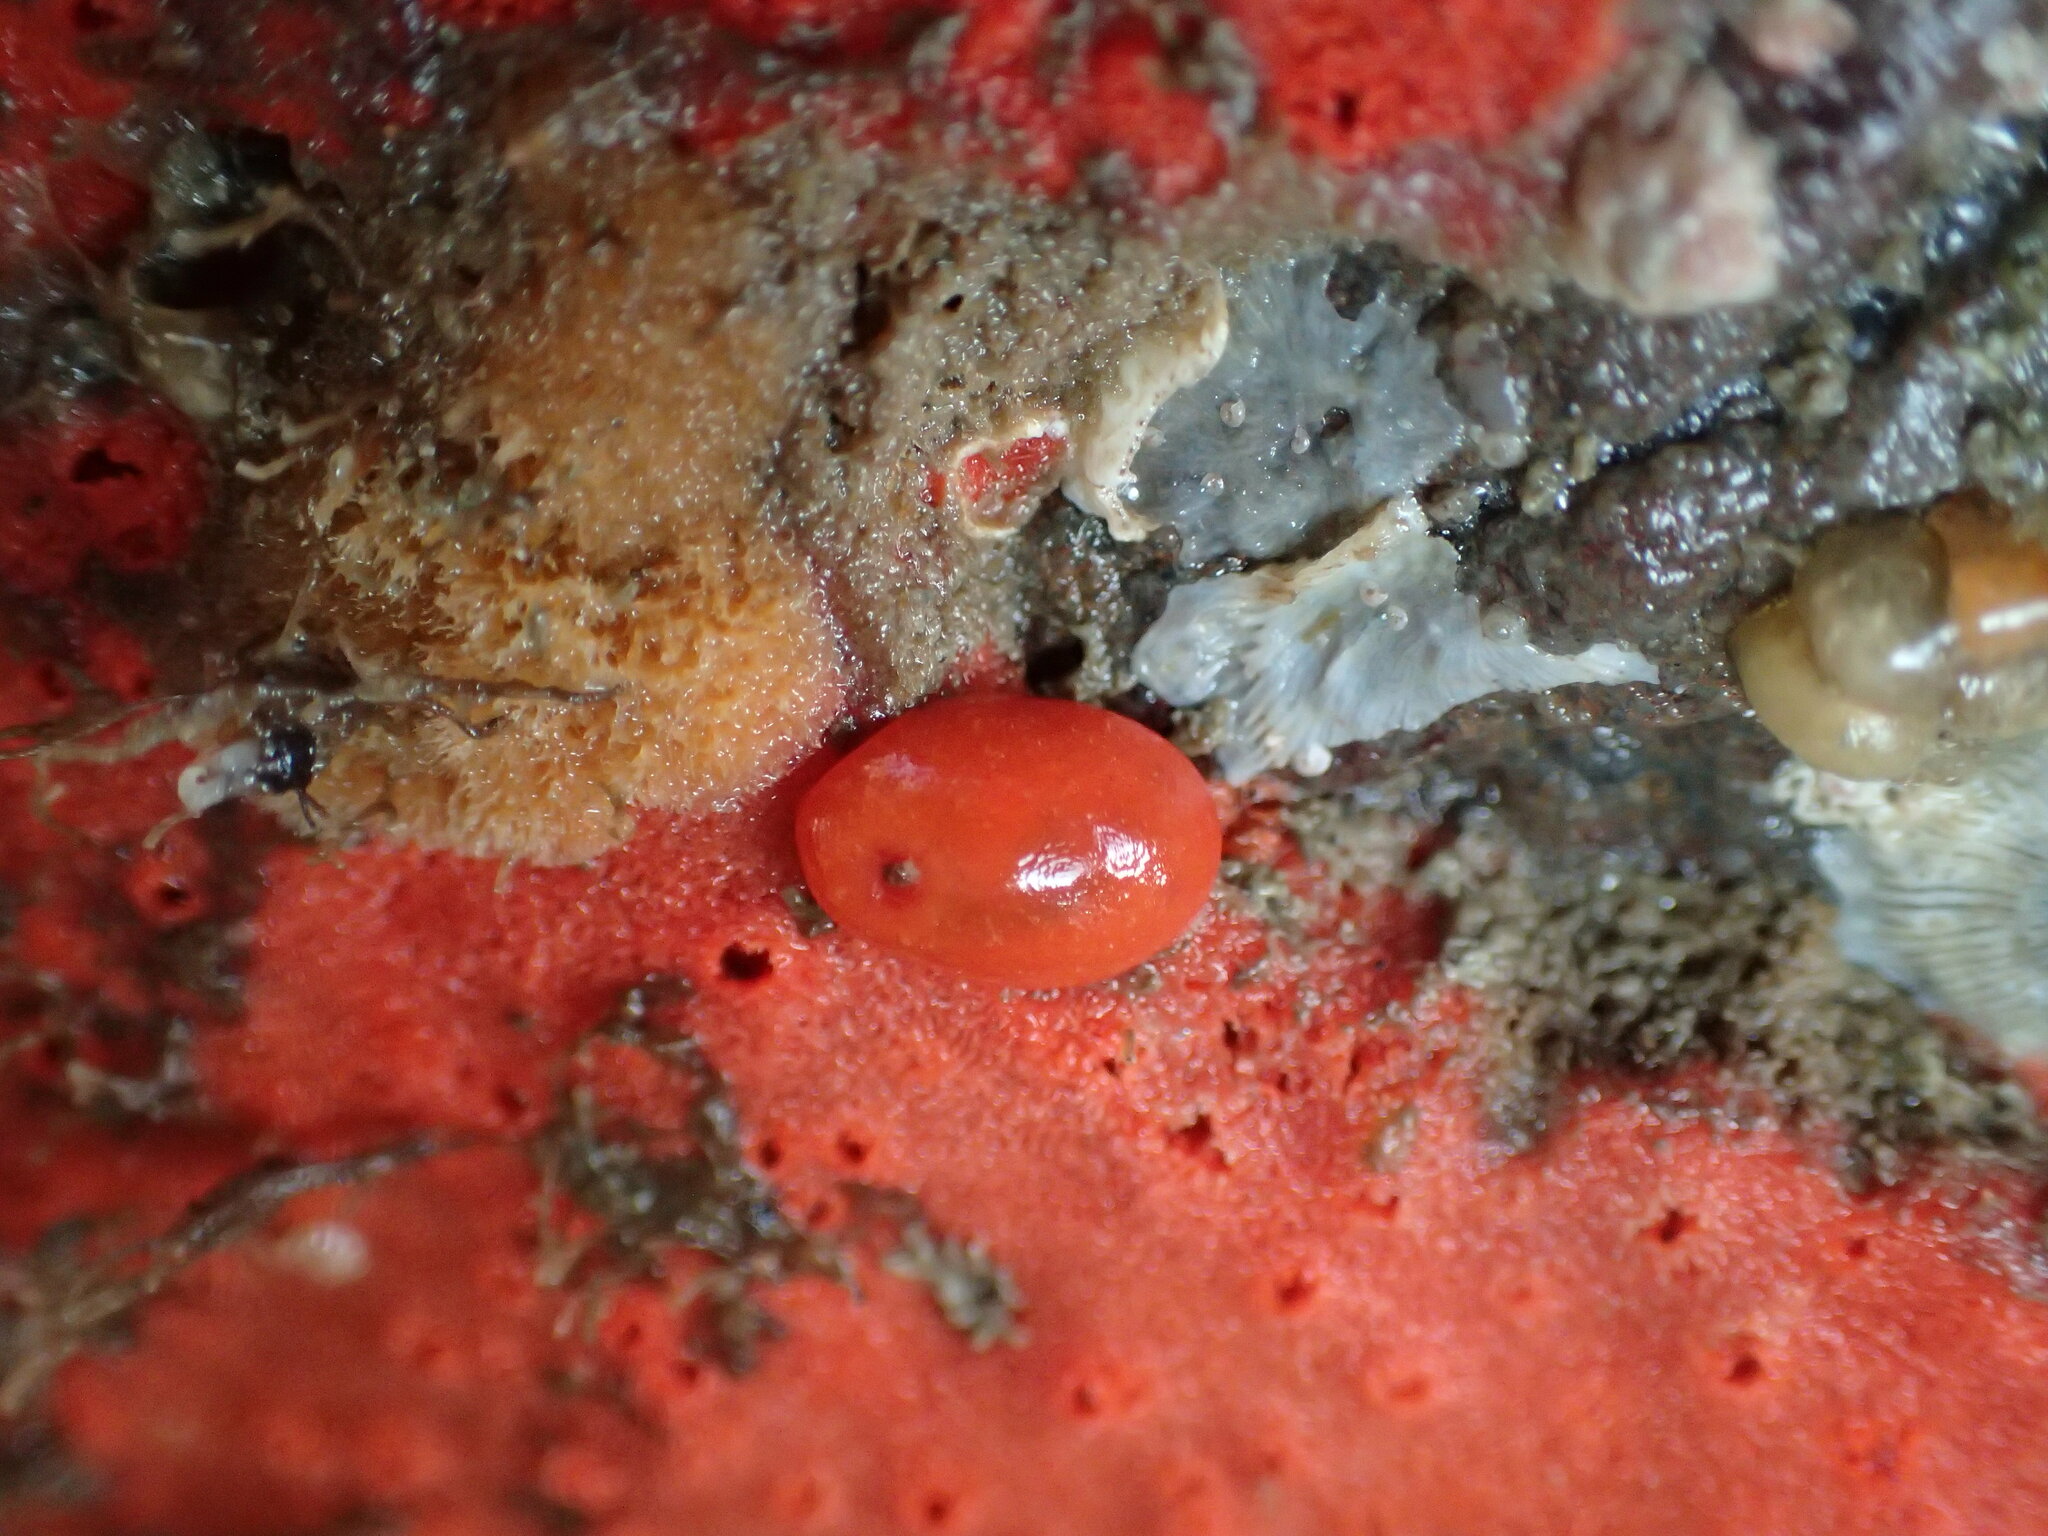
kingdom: Animalia
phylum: Mollusca
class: Gastropoda
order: Nudibranchia
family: Discodorididae
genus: Rostanga
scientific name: Rostanga pulchra
